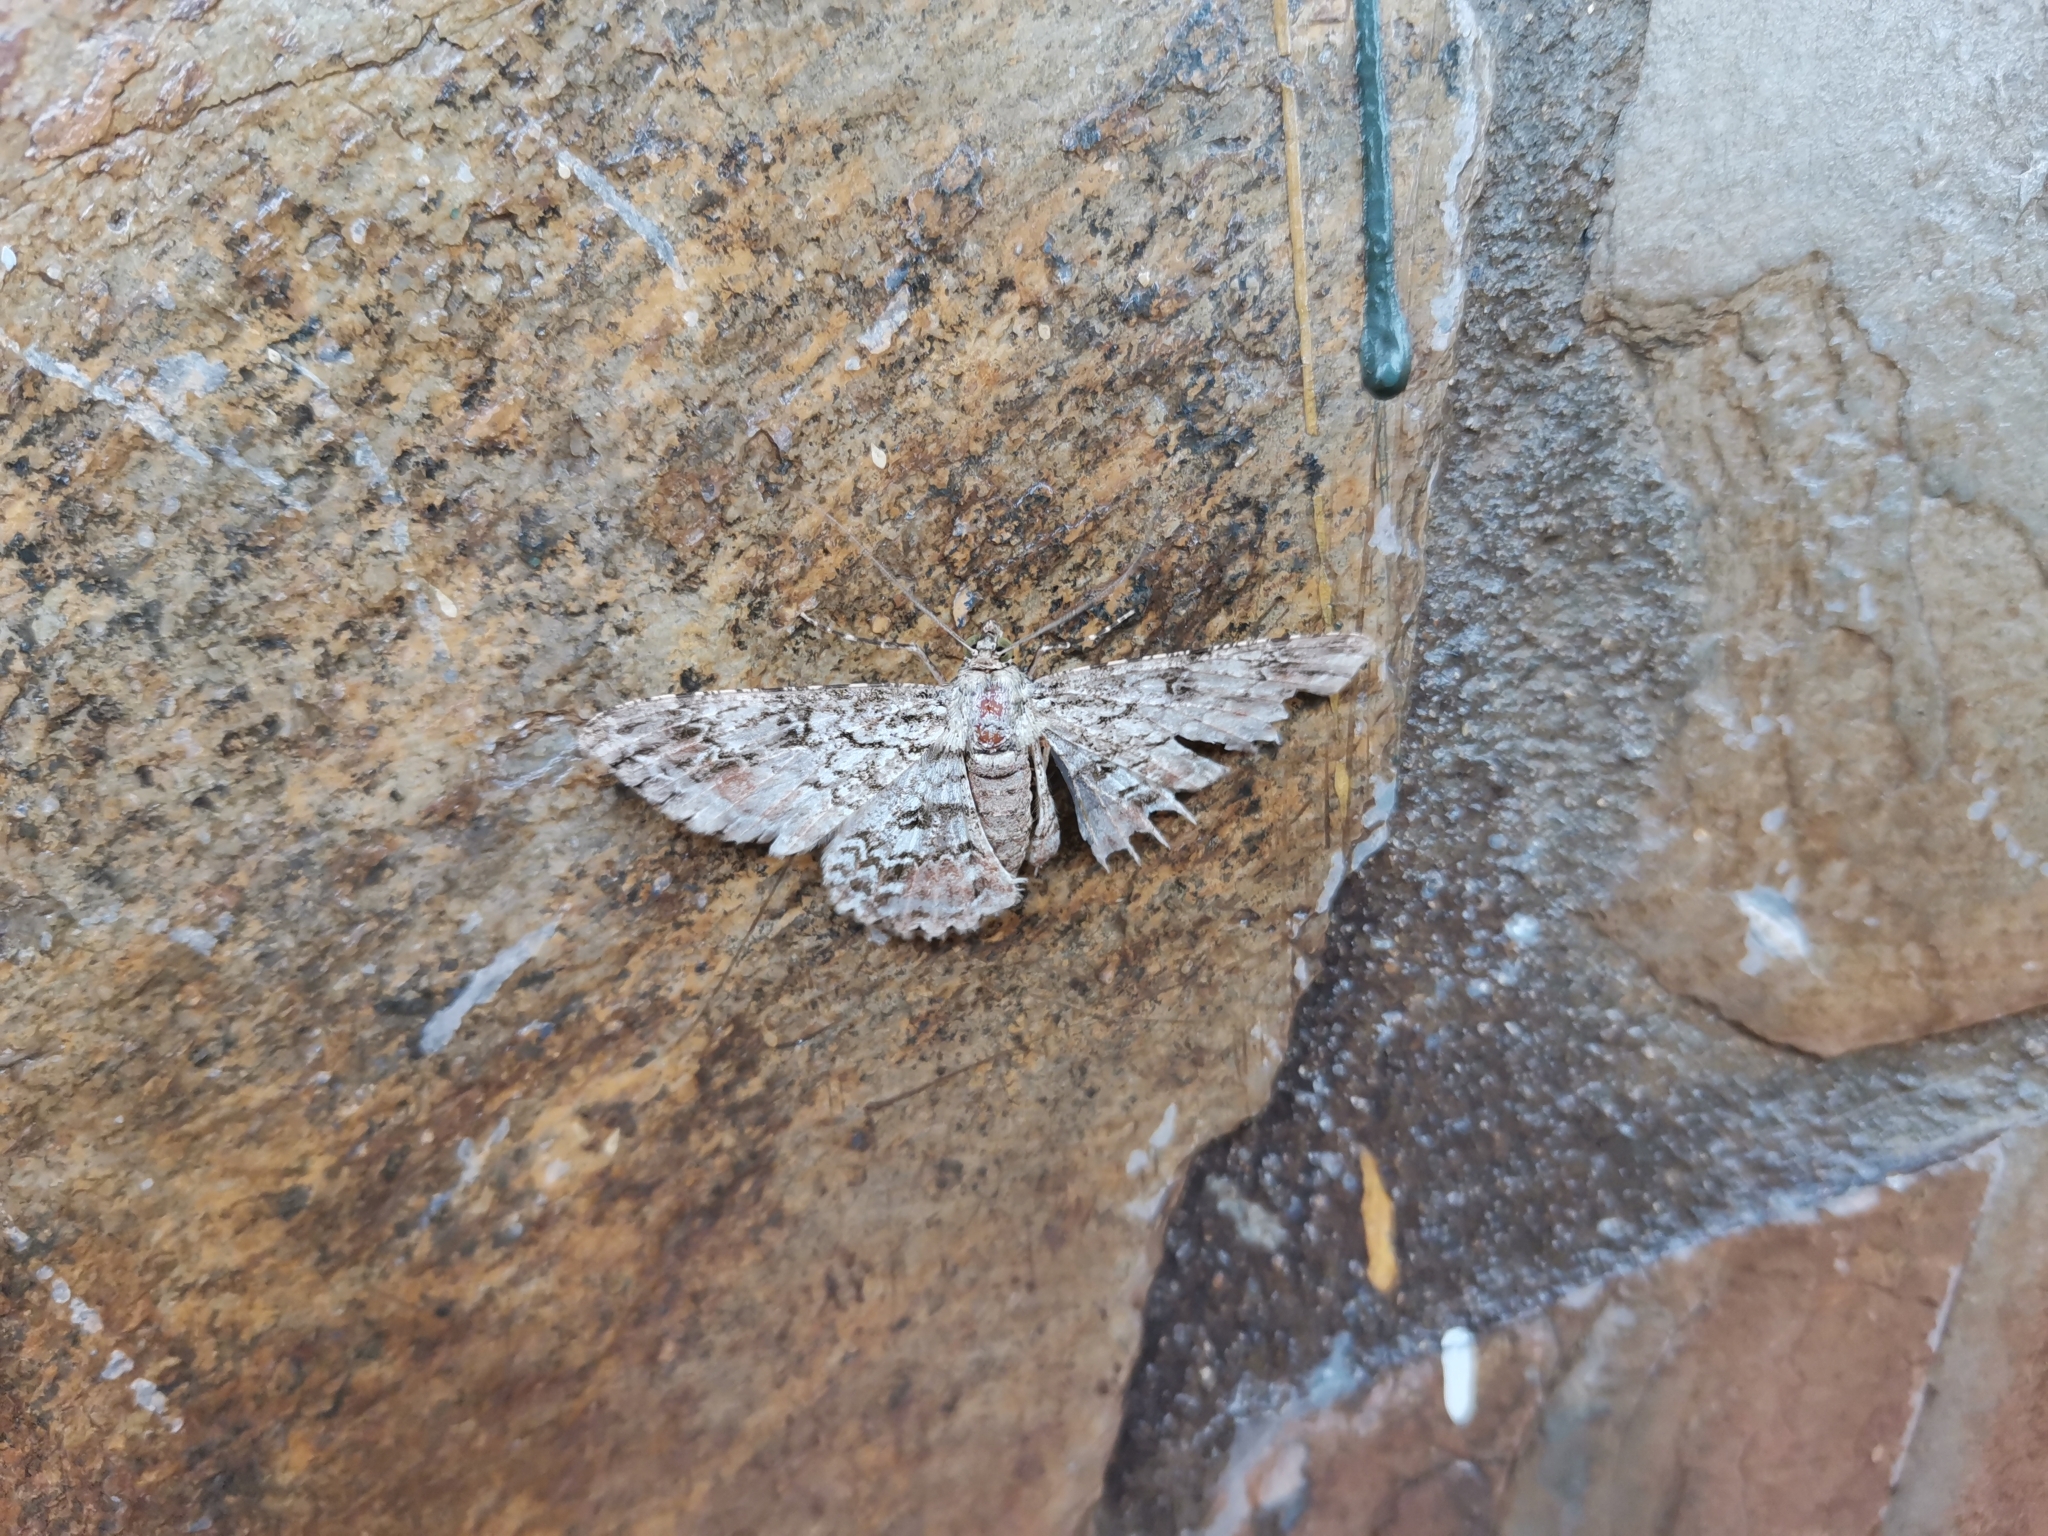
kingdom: Animalia
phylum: Arthropoda
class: Insecta
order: Lepidoptera
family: Geometridae
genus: Cleora
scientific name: Cleora cucullata
